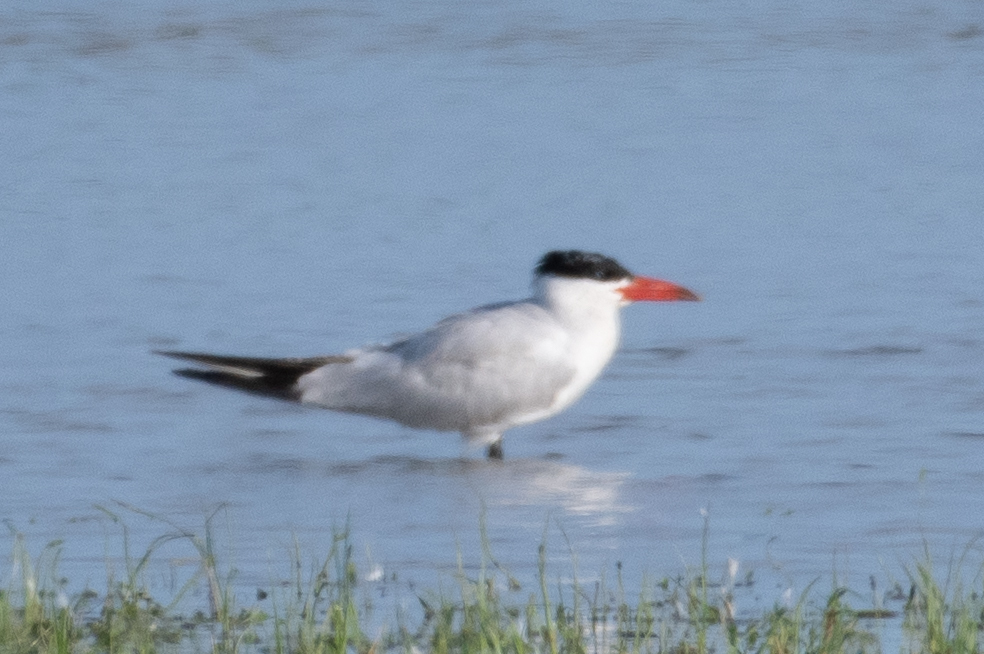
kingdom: Animalia
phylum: Chordata
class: Aves
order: Charadriiformes
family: Laridae
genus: Hydroprogne
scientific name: Hydroprogne caspia
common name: Caspian tern
